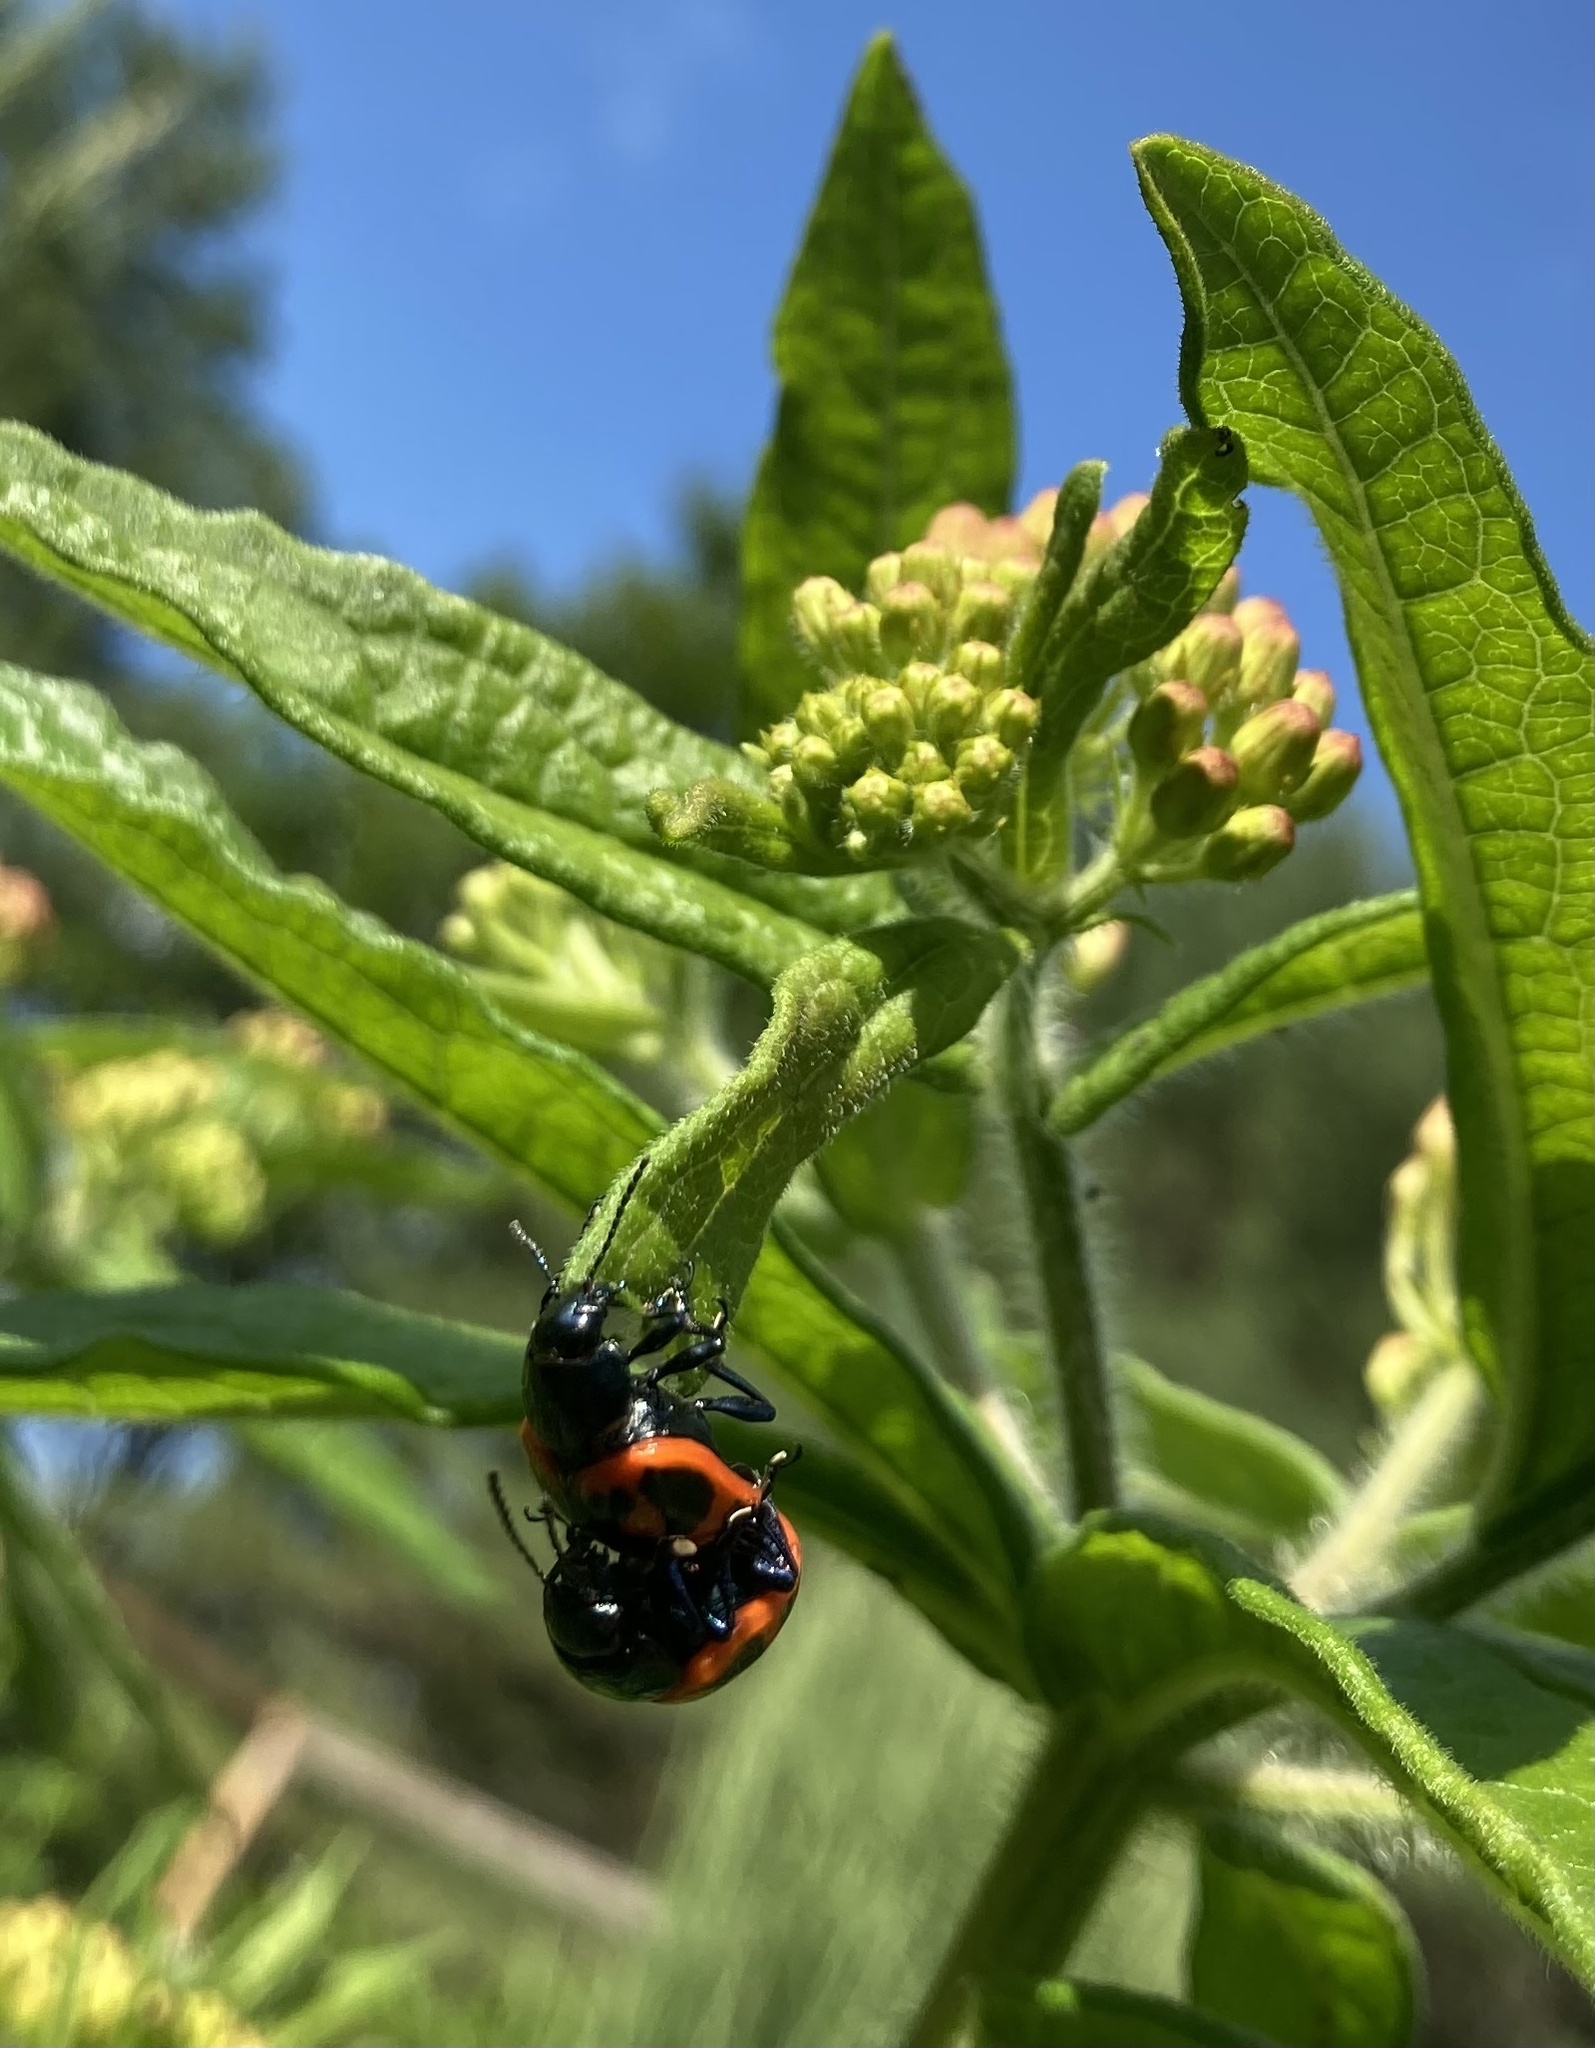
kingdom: Animalia
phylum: Arthropoda
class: Insecta
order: Coleoptera
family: Chrysomelidae
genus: Labidomera
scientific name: Labidomera clivicollis
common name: Swamp milkweed leaf beetle
